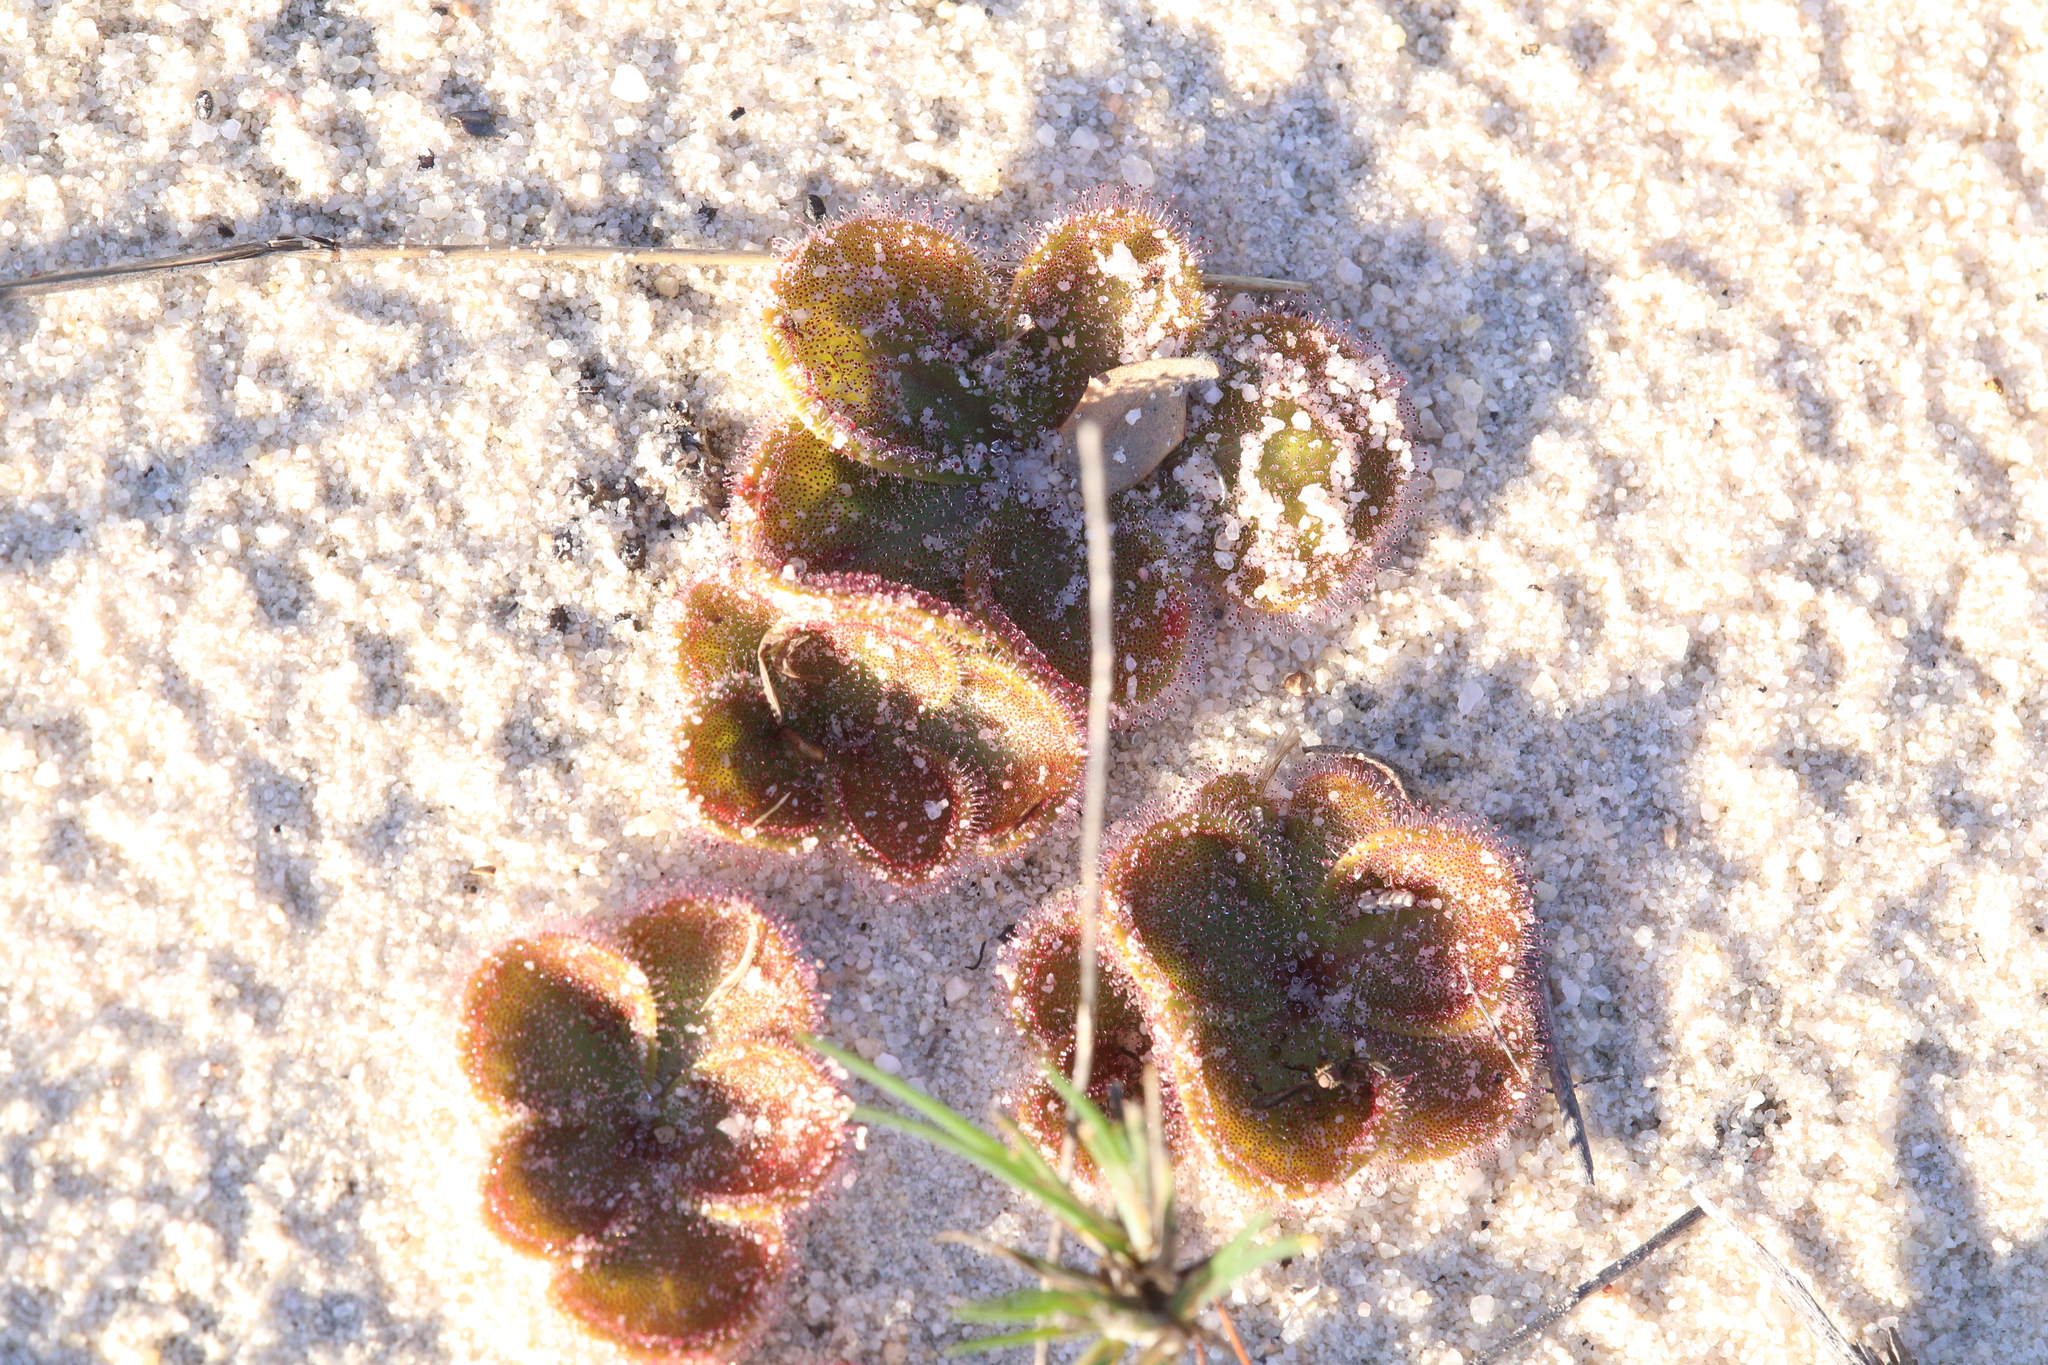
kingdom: Plantae
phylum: Tracheophyta
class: Magnoliopsida
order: Caryophyllales
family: Droseraceae
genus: Drosera
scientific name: Drosera erythrorhiza
